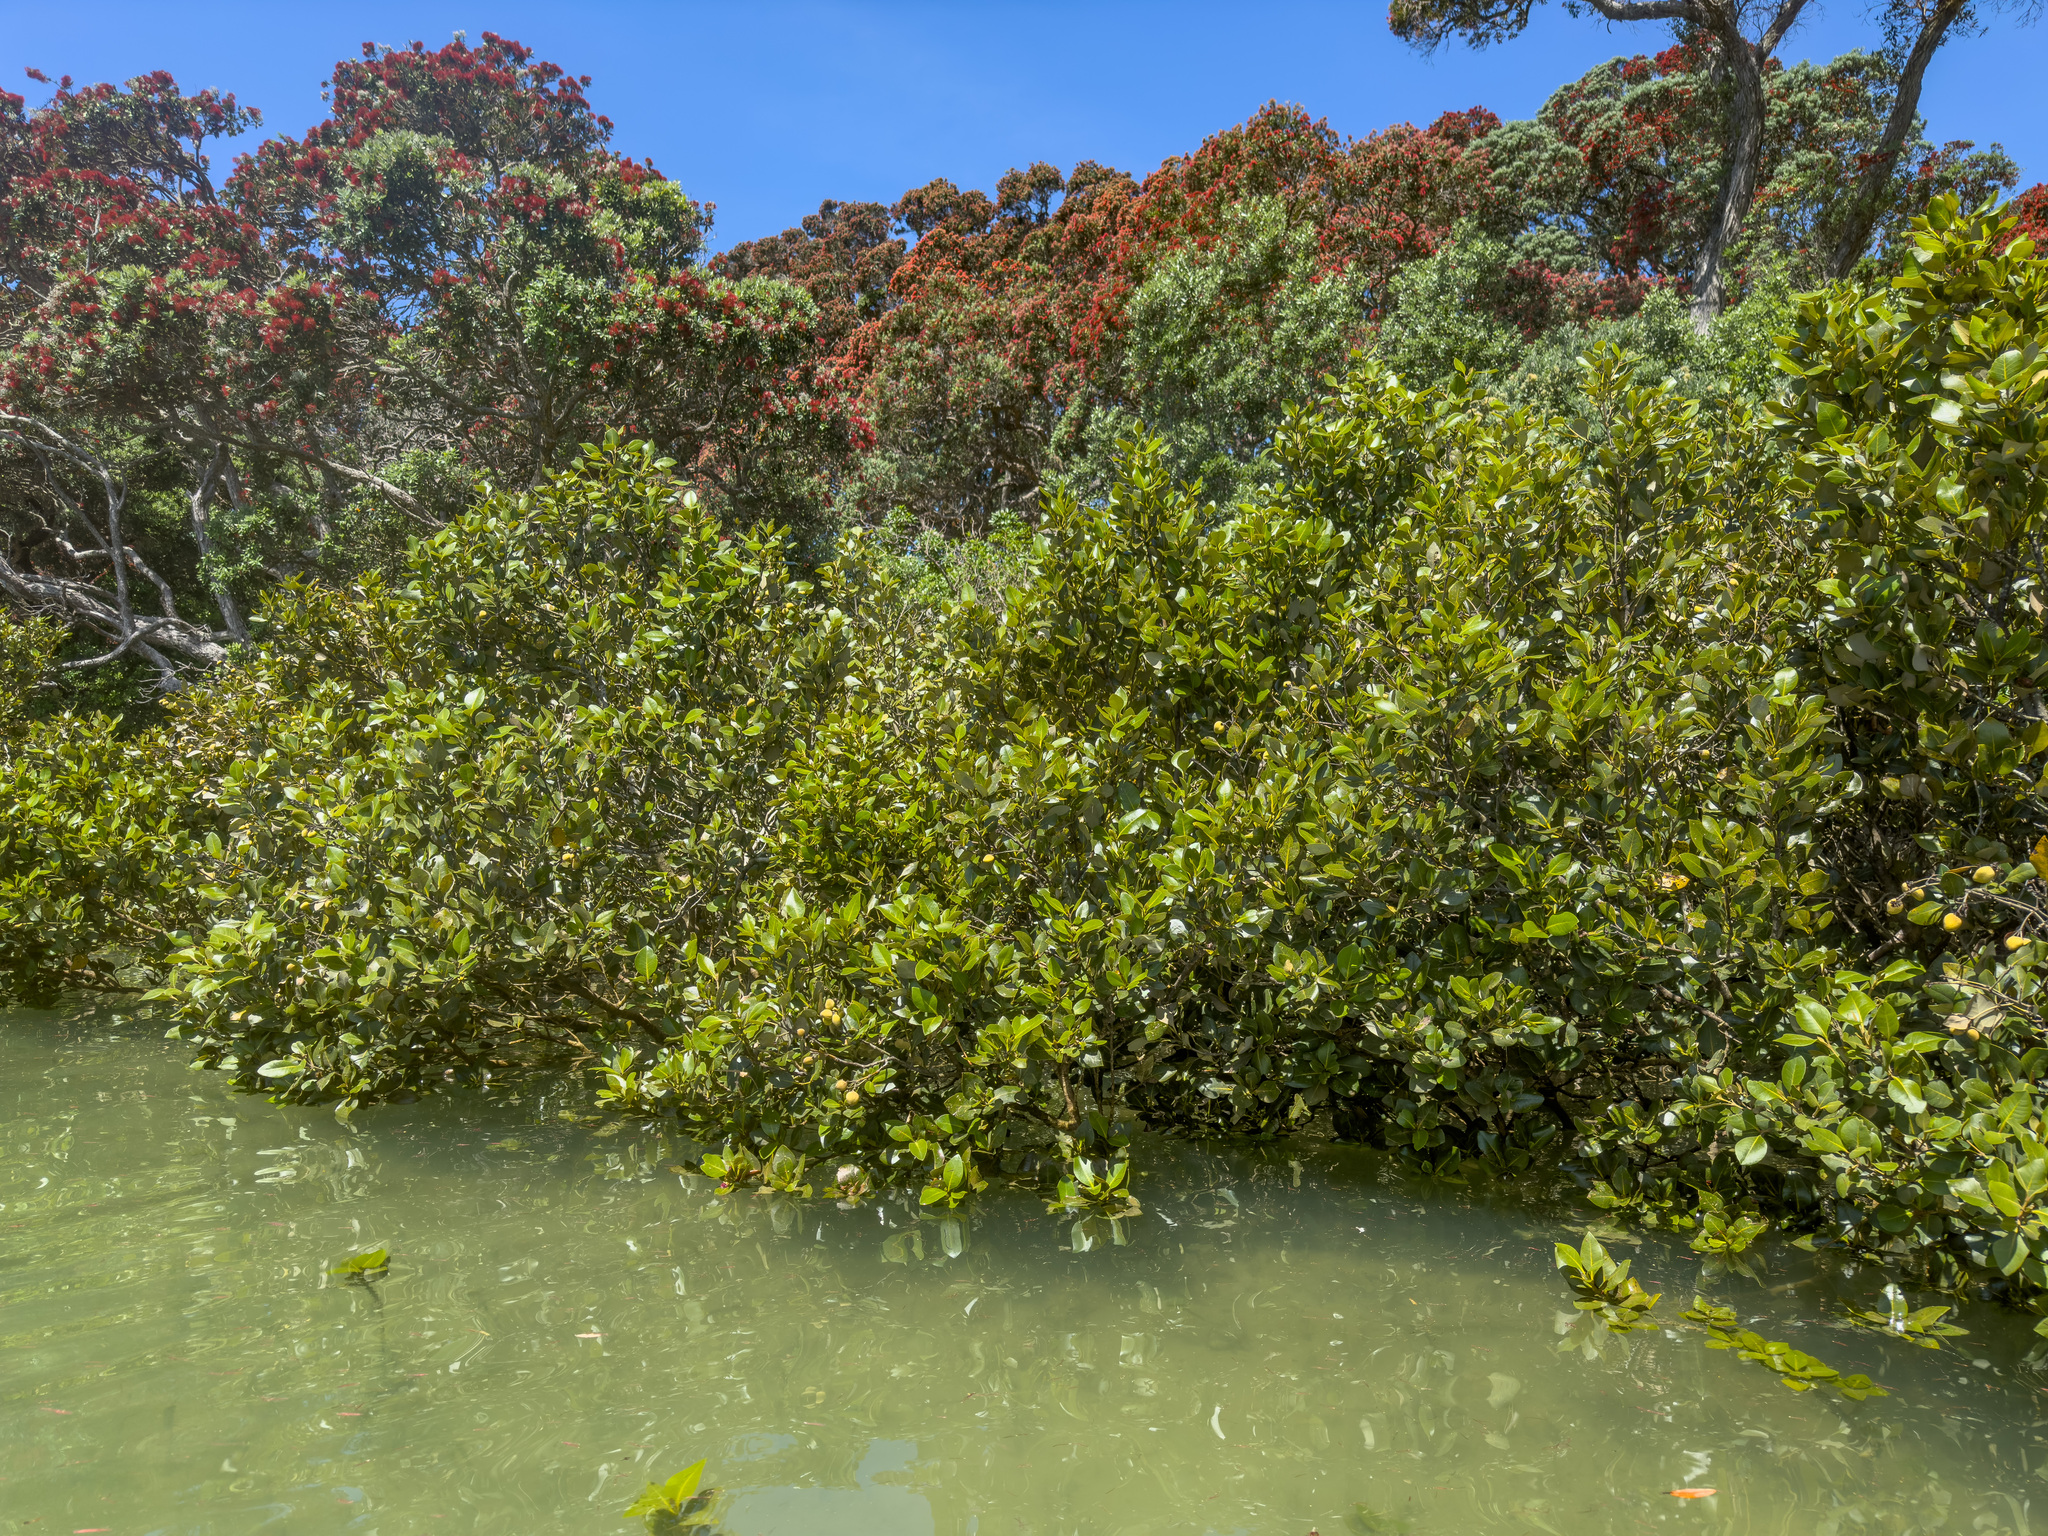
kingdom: Plantae
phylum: Tracheophyta
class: Magnoliopsida
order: Lamiales
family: Acanthaceae
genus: Avicennia
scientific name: Avicennia marina
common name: Gray mangrove
